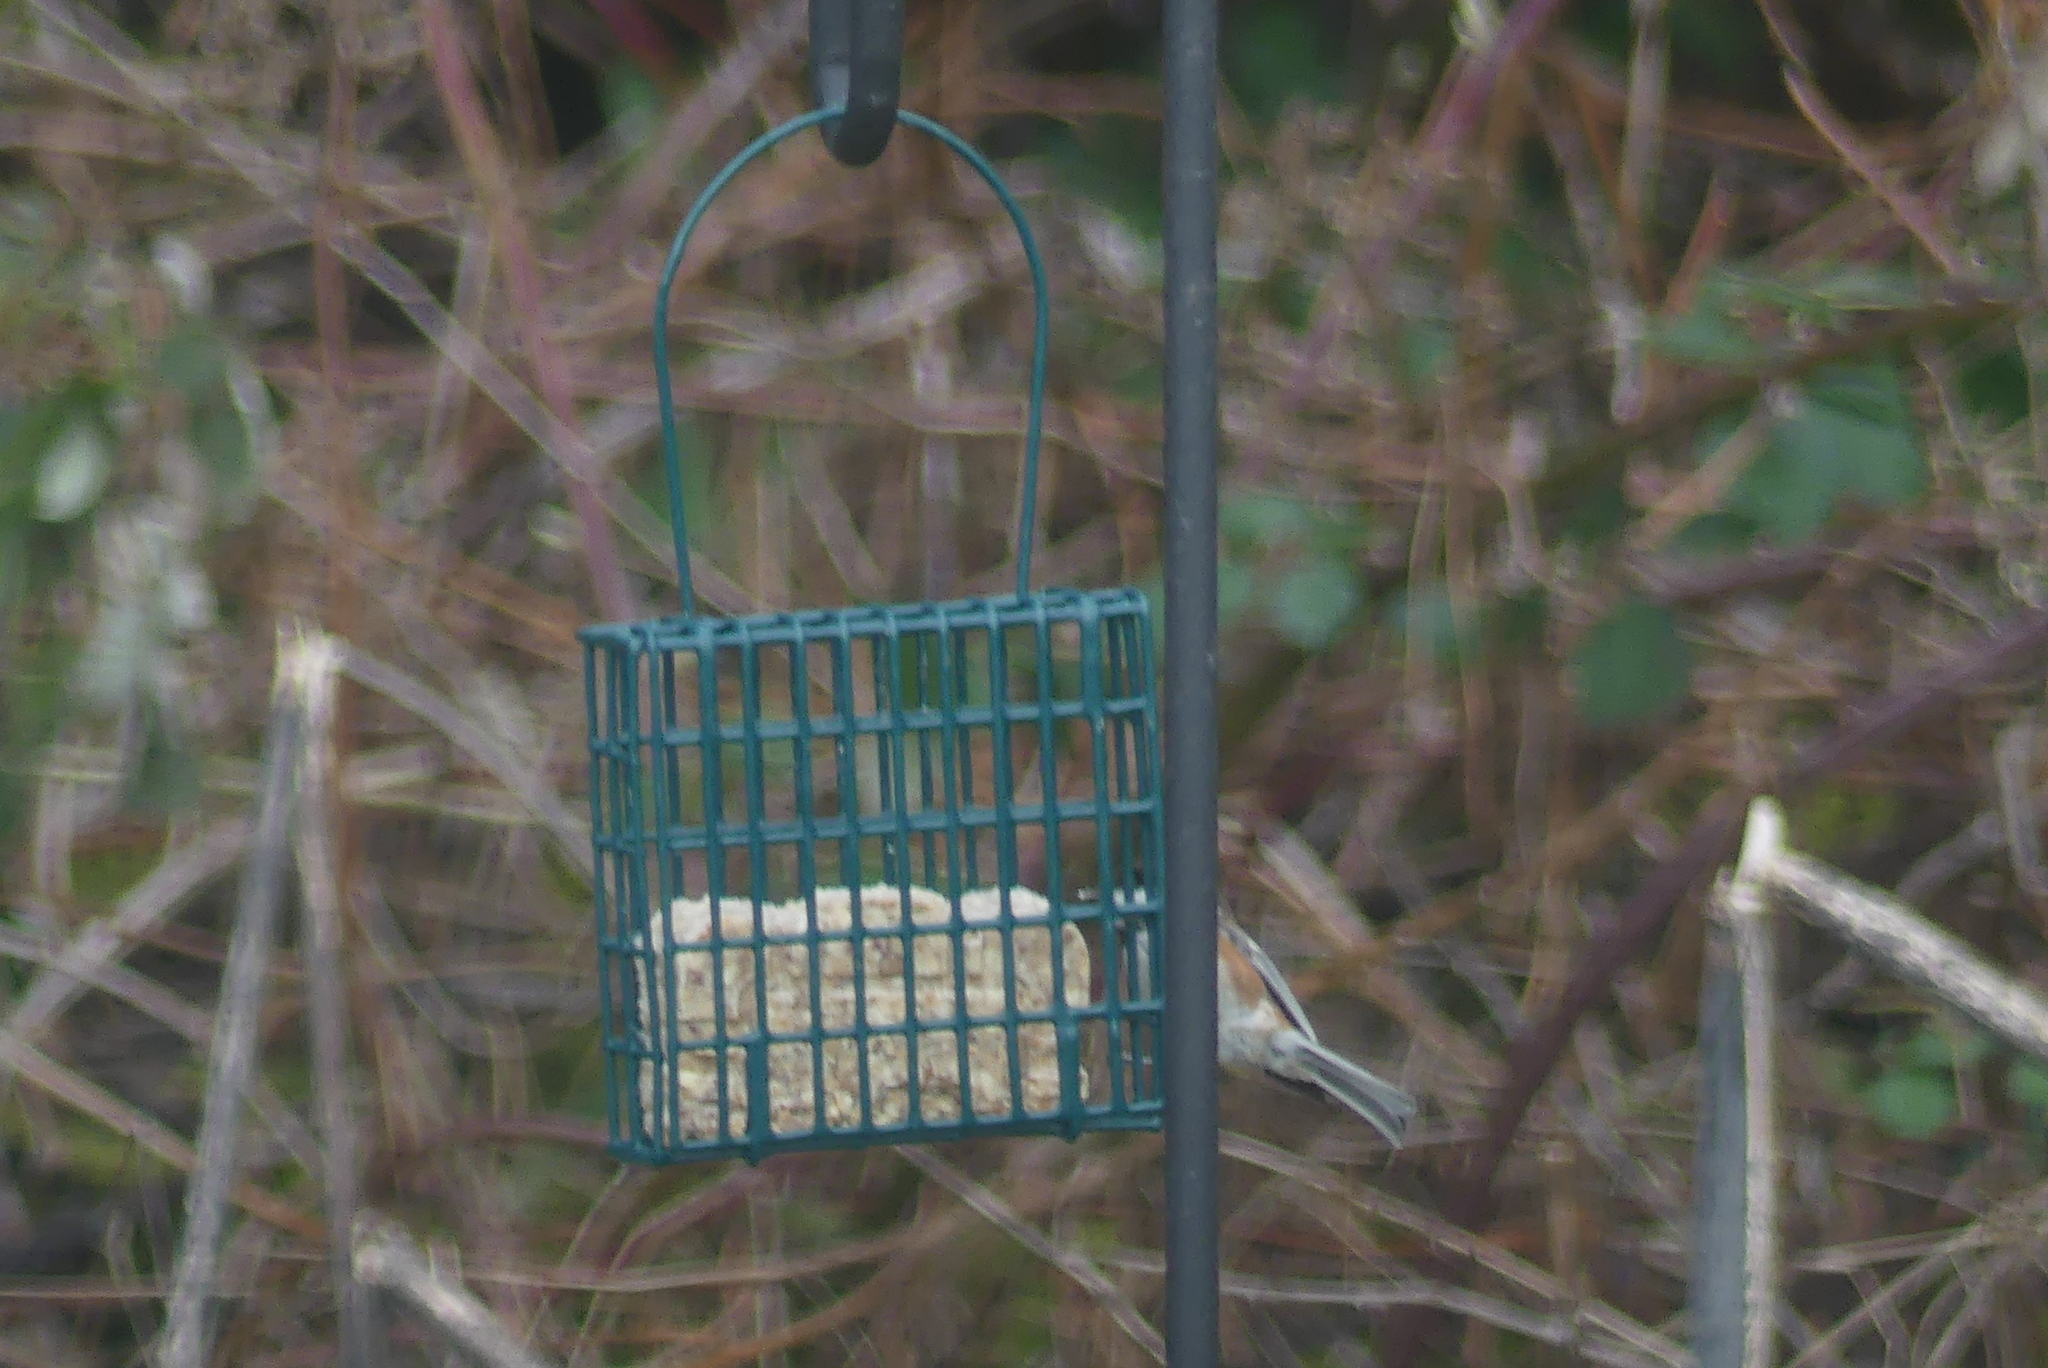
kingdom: Animalia
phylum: Chordata
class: Aves
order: Passeriformes
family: Paridae
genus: Poecile
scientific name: Poecile rufescens
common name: Chestnut-backed chickadee
